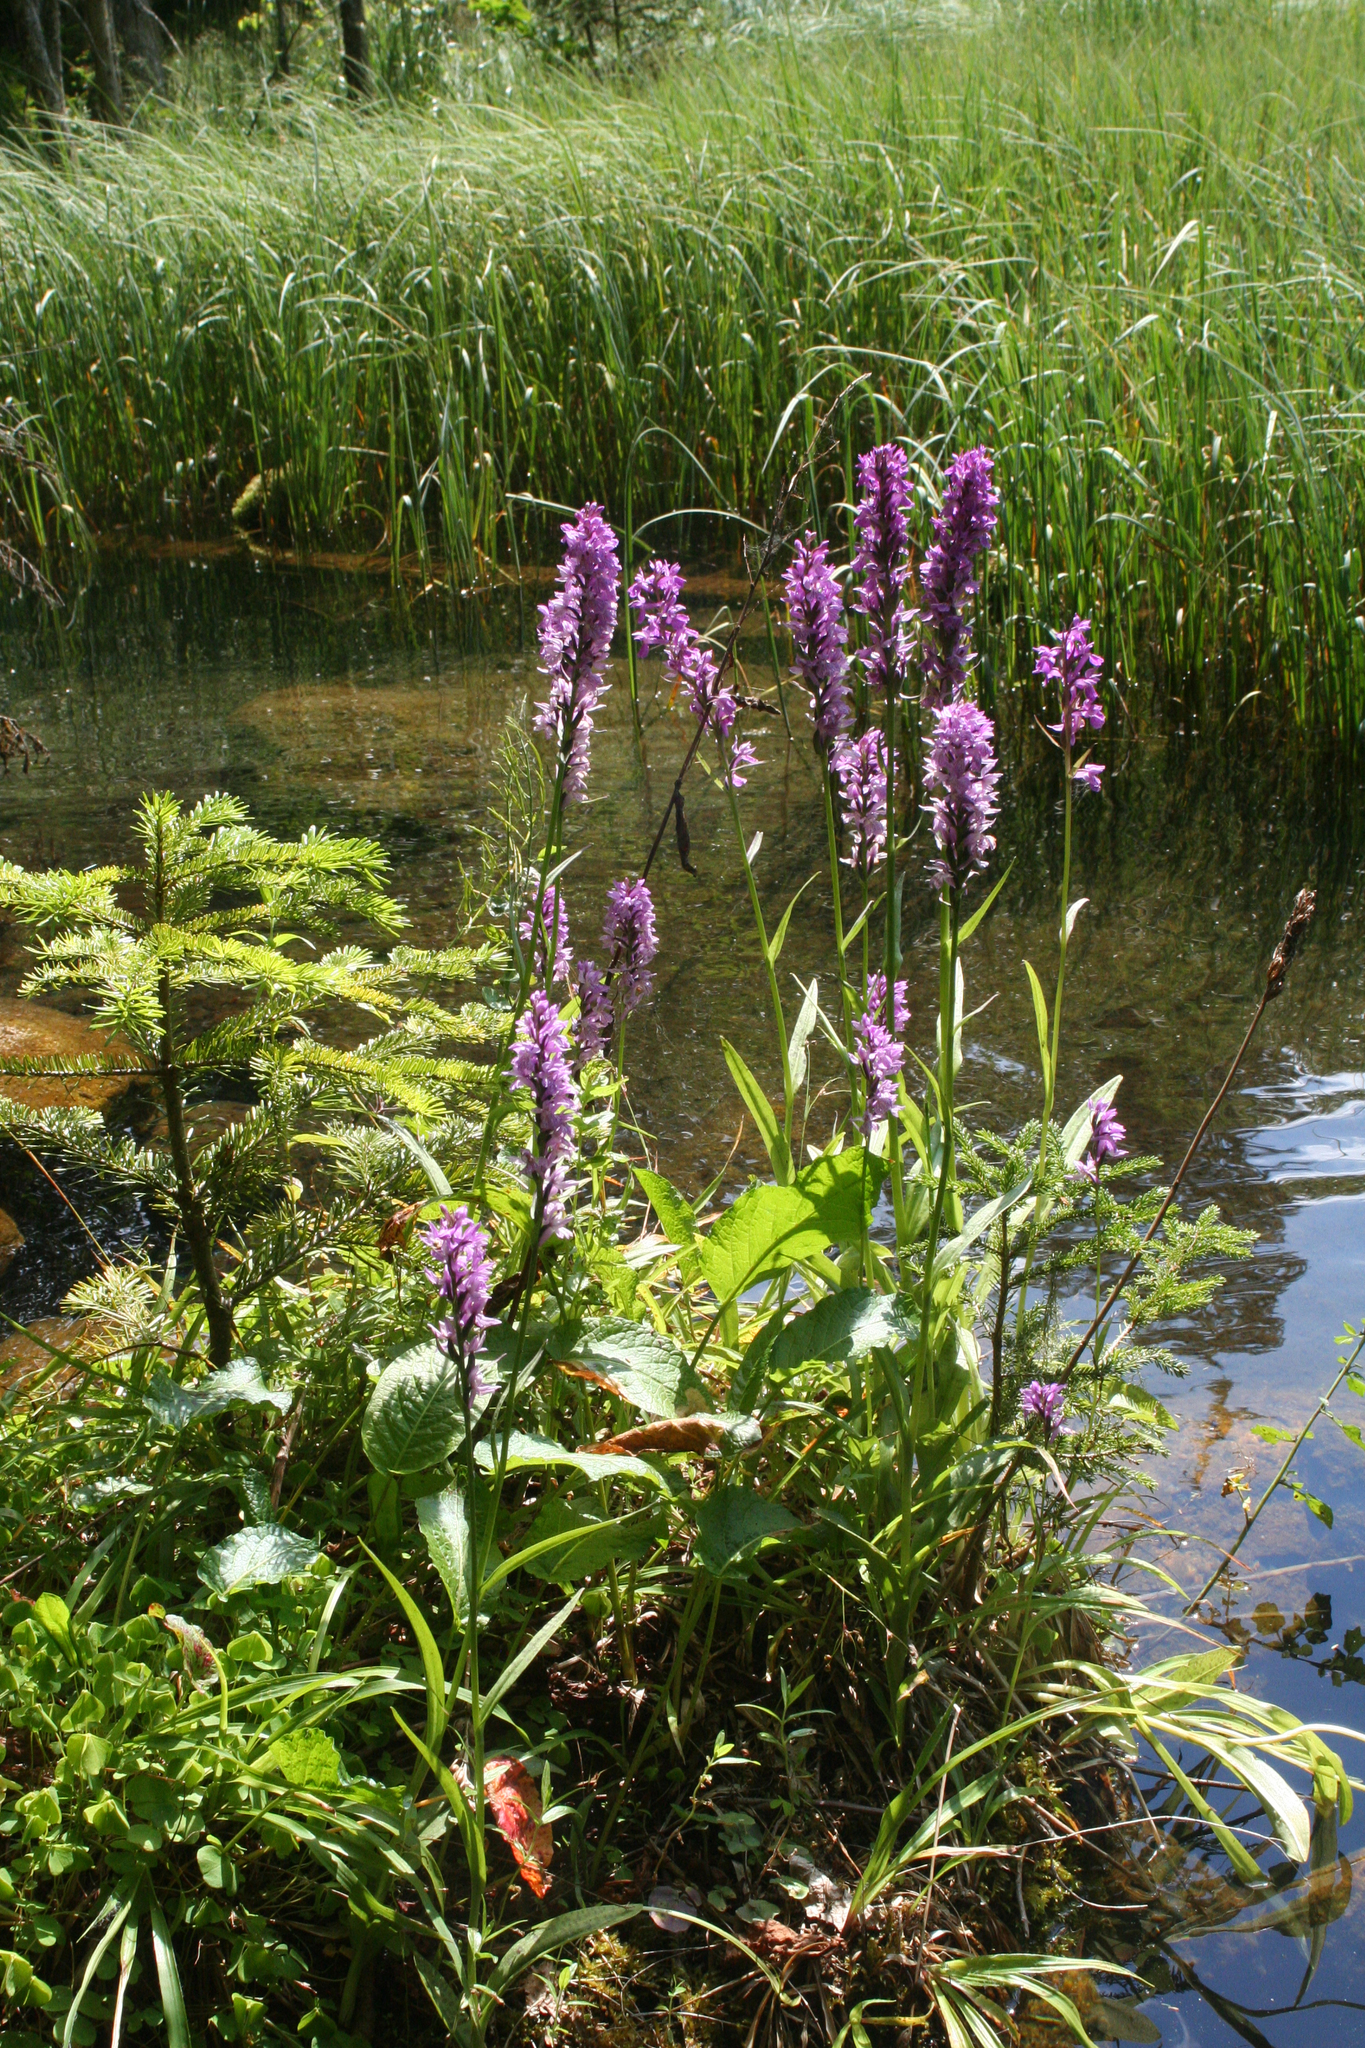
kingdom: Plantae
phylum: Tracheophyta
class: Pinopsida
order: Pinales
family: Pinaceae
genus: Abies
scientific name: Abies nordmanniana
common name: Caucasian fir
